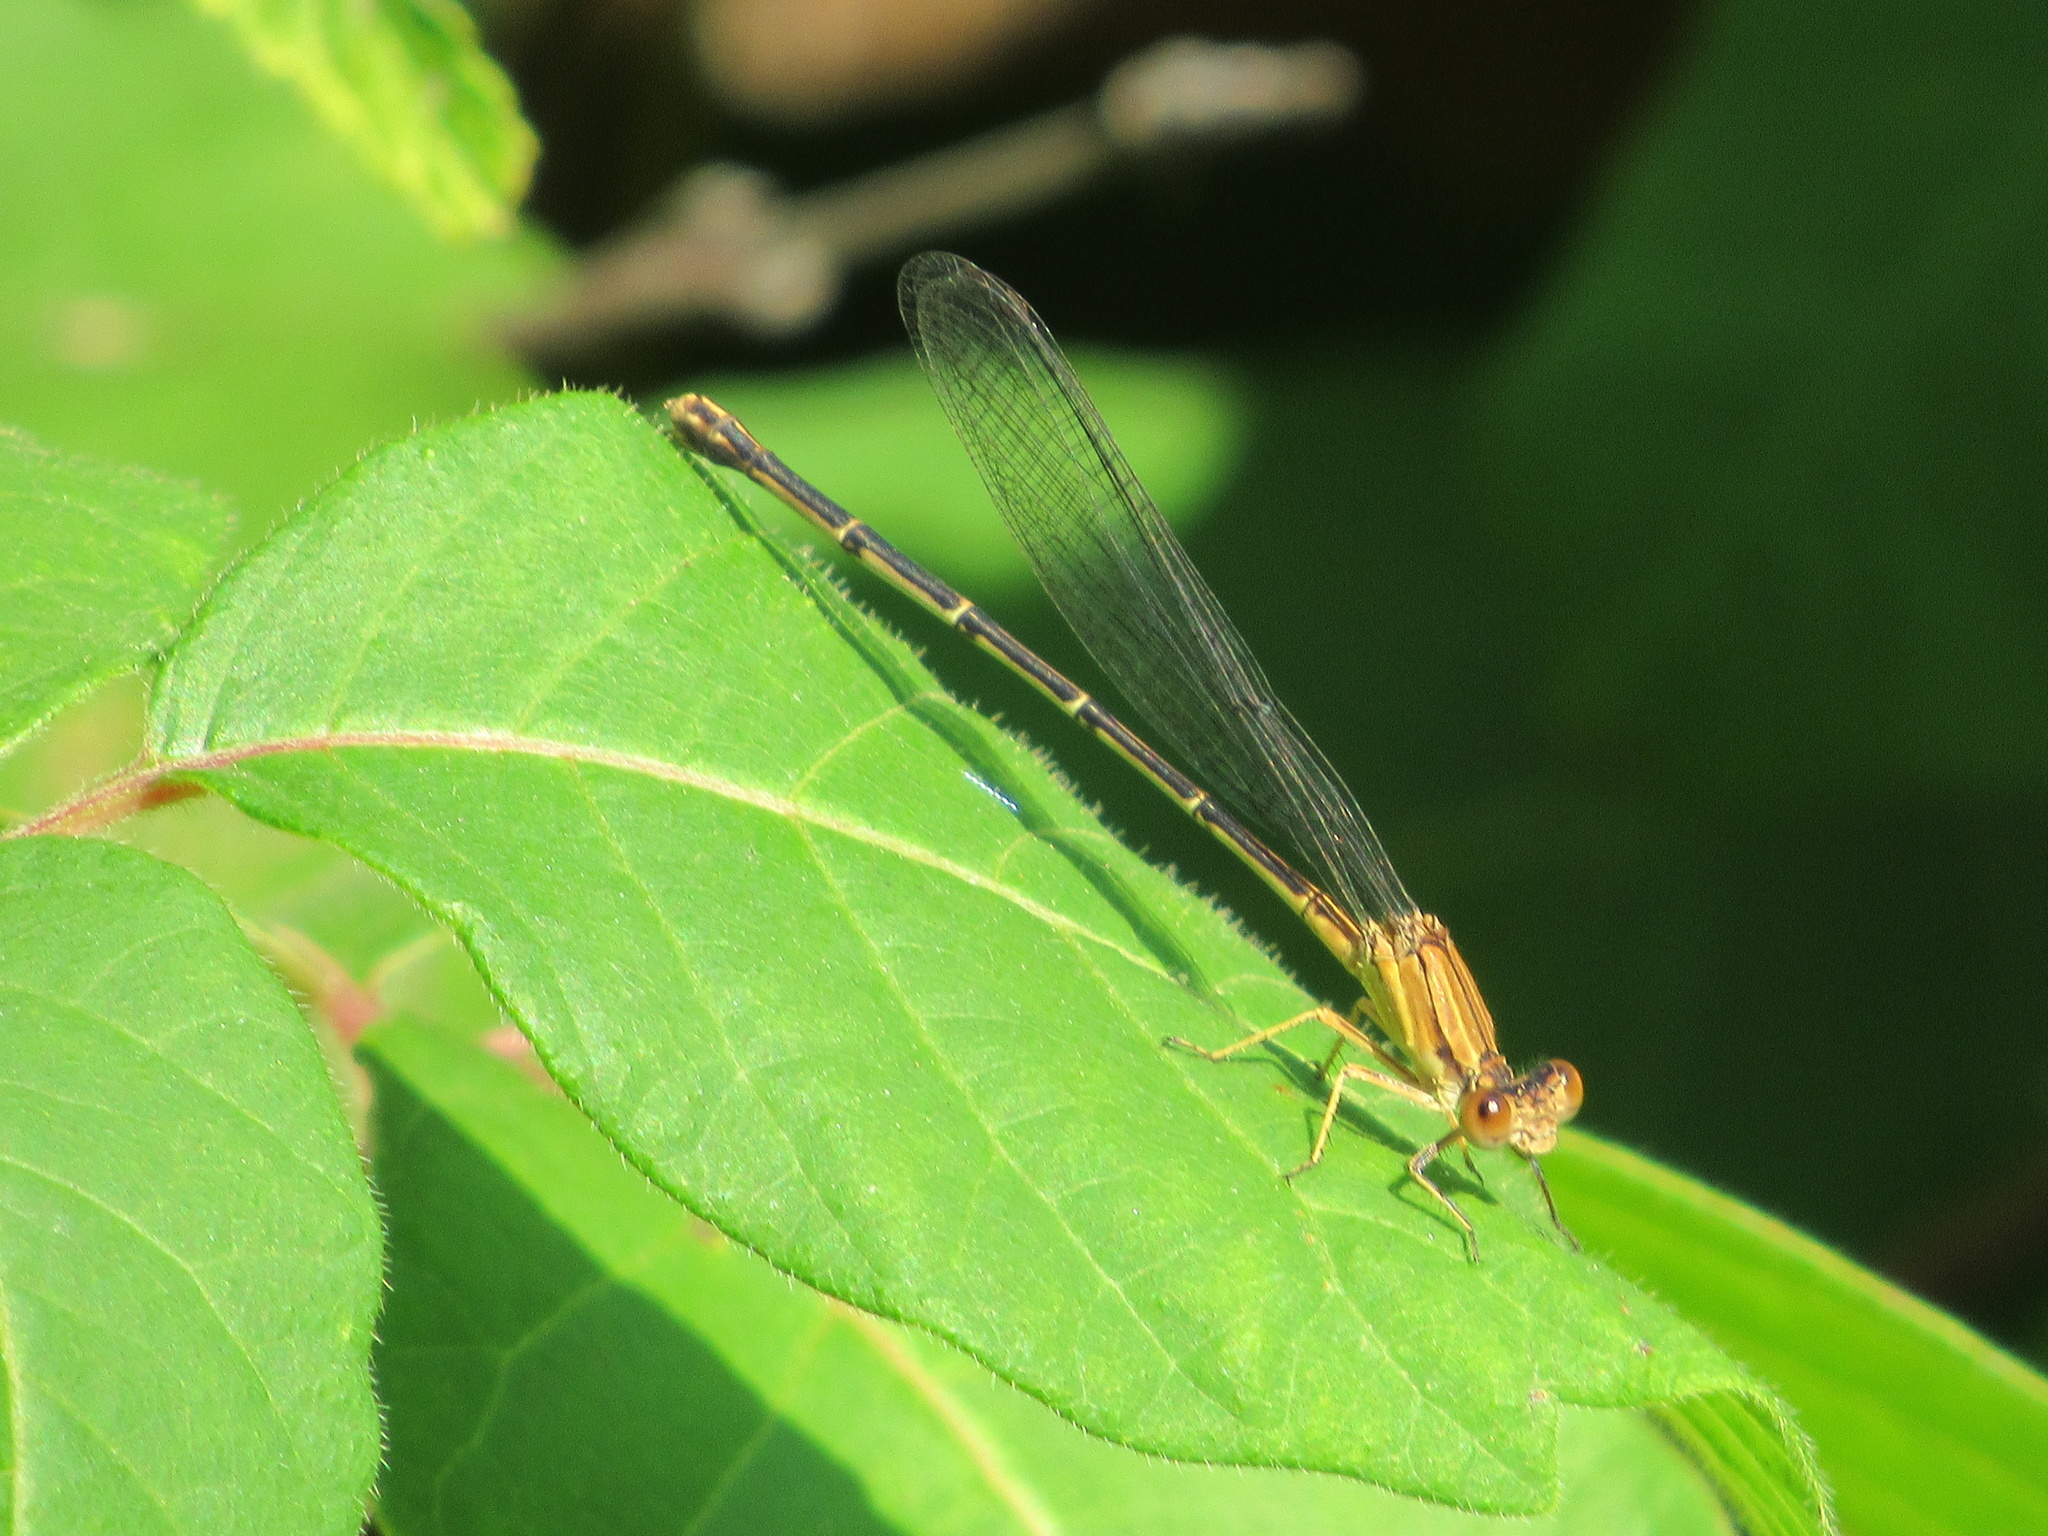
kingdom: Animalia
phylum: Arthropoda
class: Insecta
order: Odonata
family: Coenagrionidae
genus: Argia
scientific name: Argia apicalis
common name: Blue-fronted dancer
